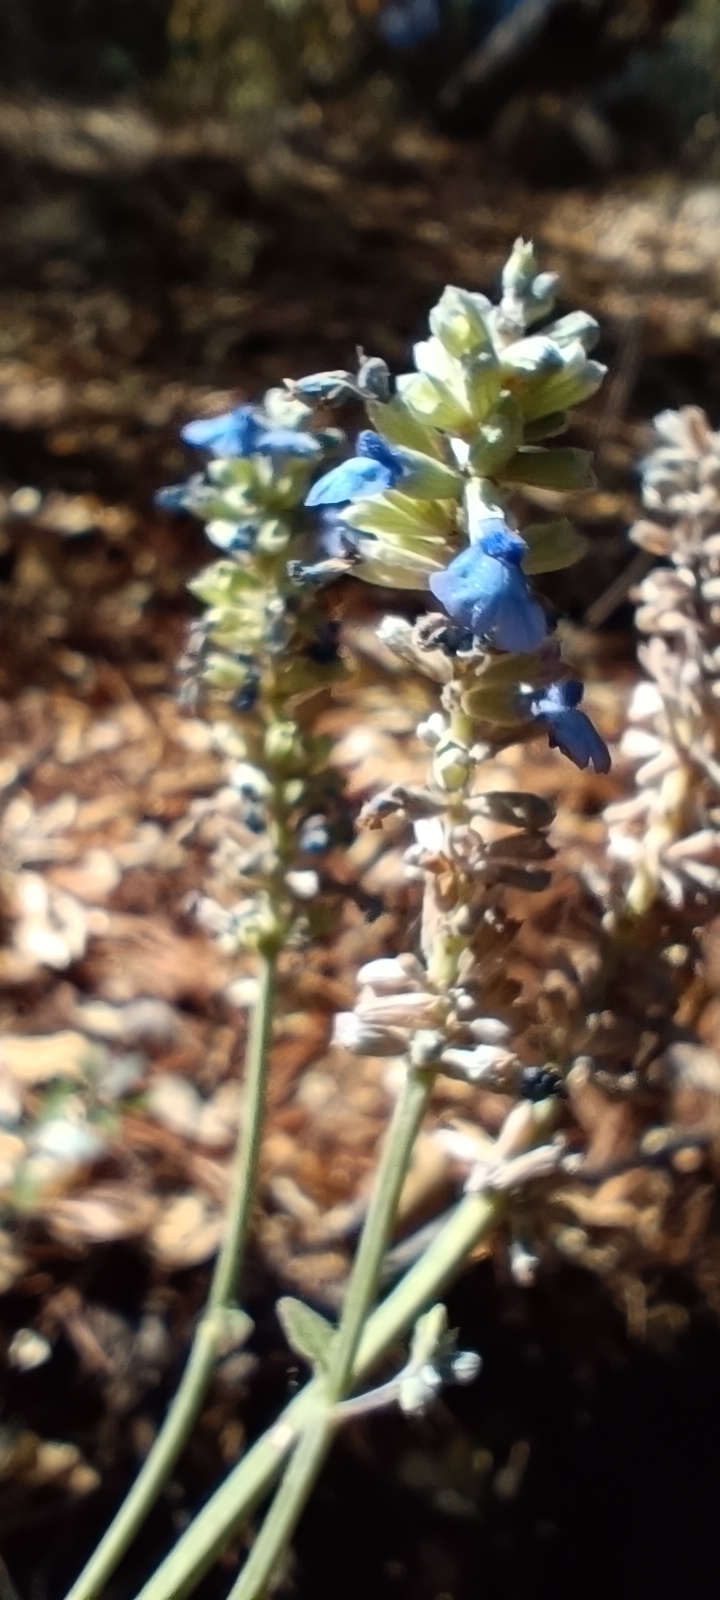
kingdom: Plantae
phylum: Tracheophyta
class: Magnoliopsida
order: Lamiales
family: Lamiaceae
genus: Salvia
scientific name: Salvia lavanduloides
